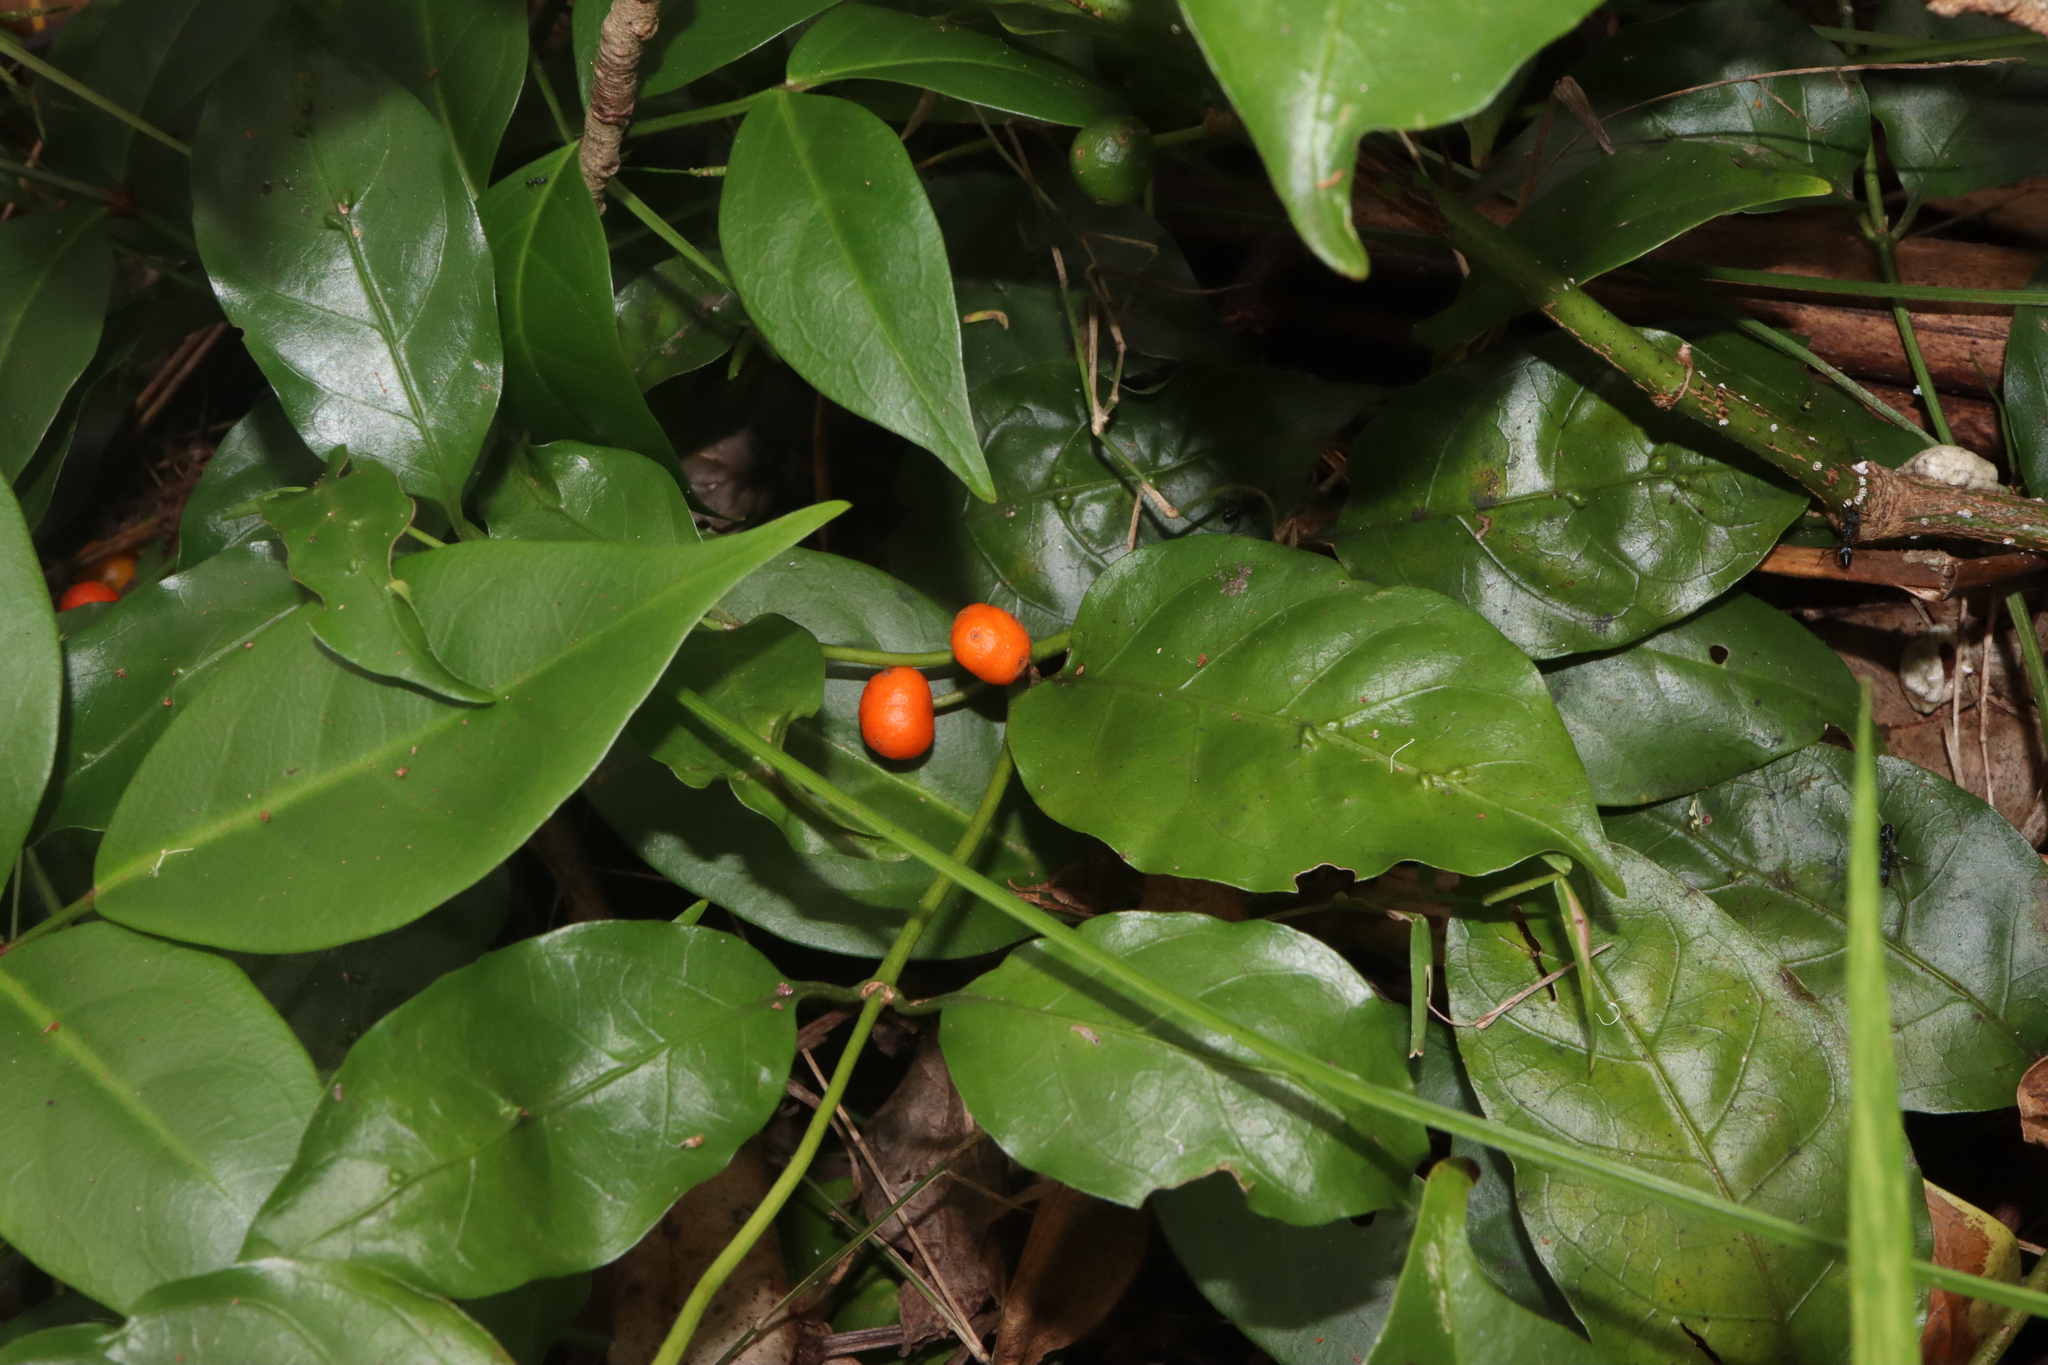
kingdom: Plantae
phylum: Tracheophyta
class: Magnoliopsida
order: Gentianales
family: Rubiaceae
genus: Gynochthodes
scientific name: Gynochthodes jasminoides
